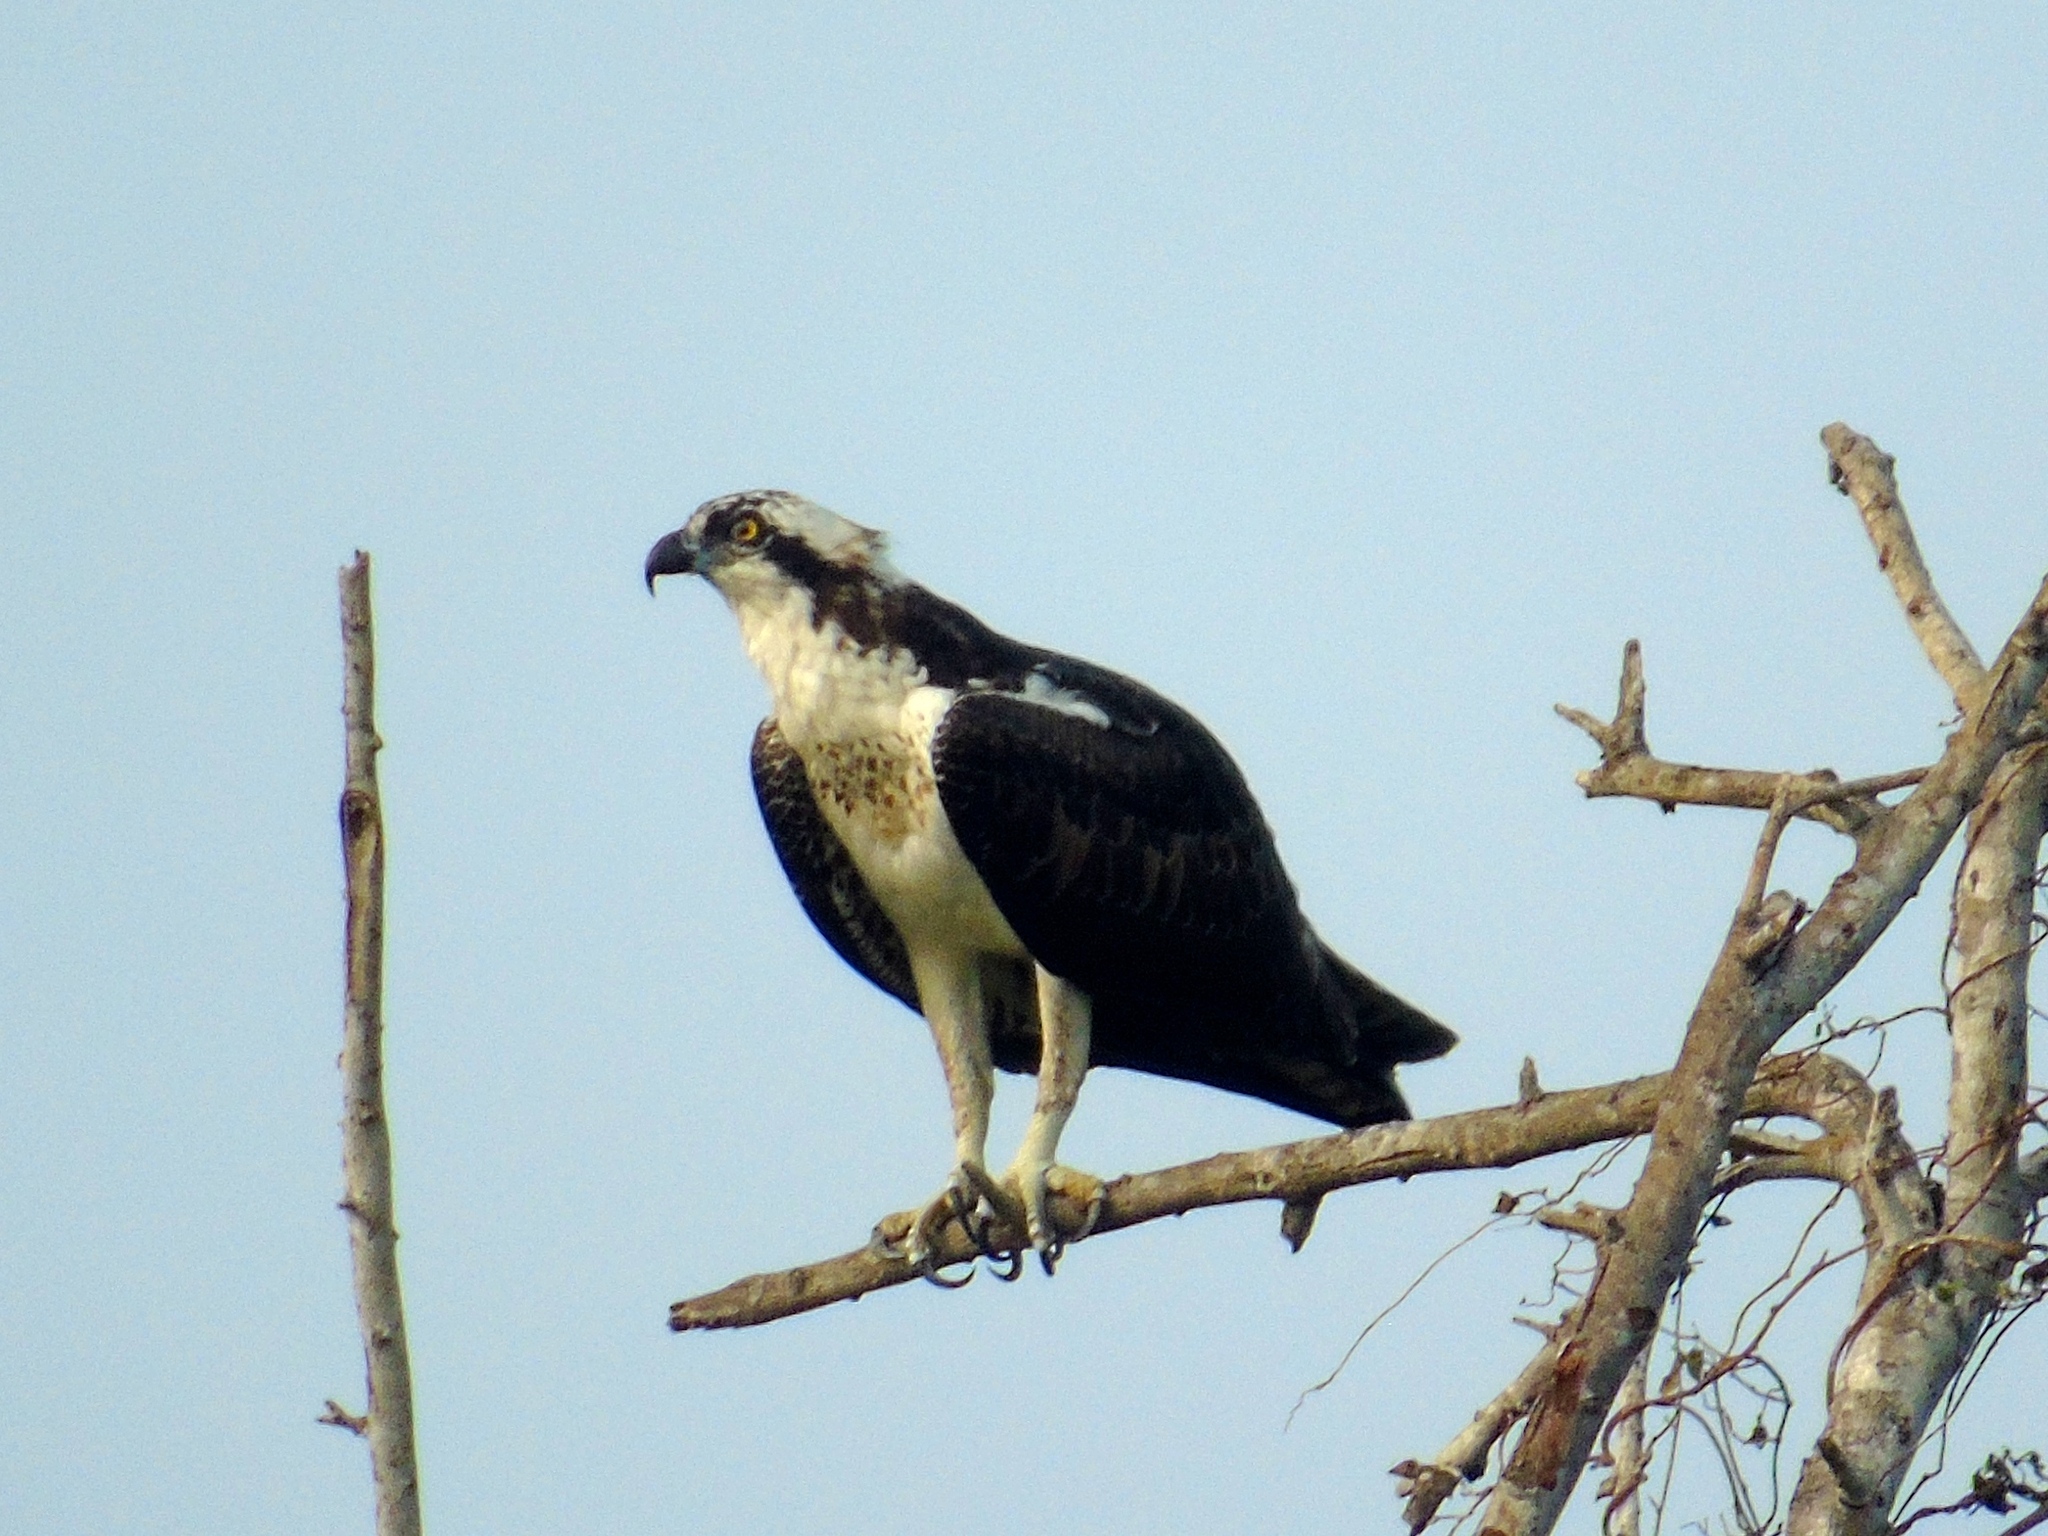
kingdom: Animalia
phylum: Chordata
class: Aves
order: Accipitriformes
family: Pandionidae
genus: Pandion
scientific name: Pandion haliaetus
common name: Osprey
